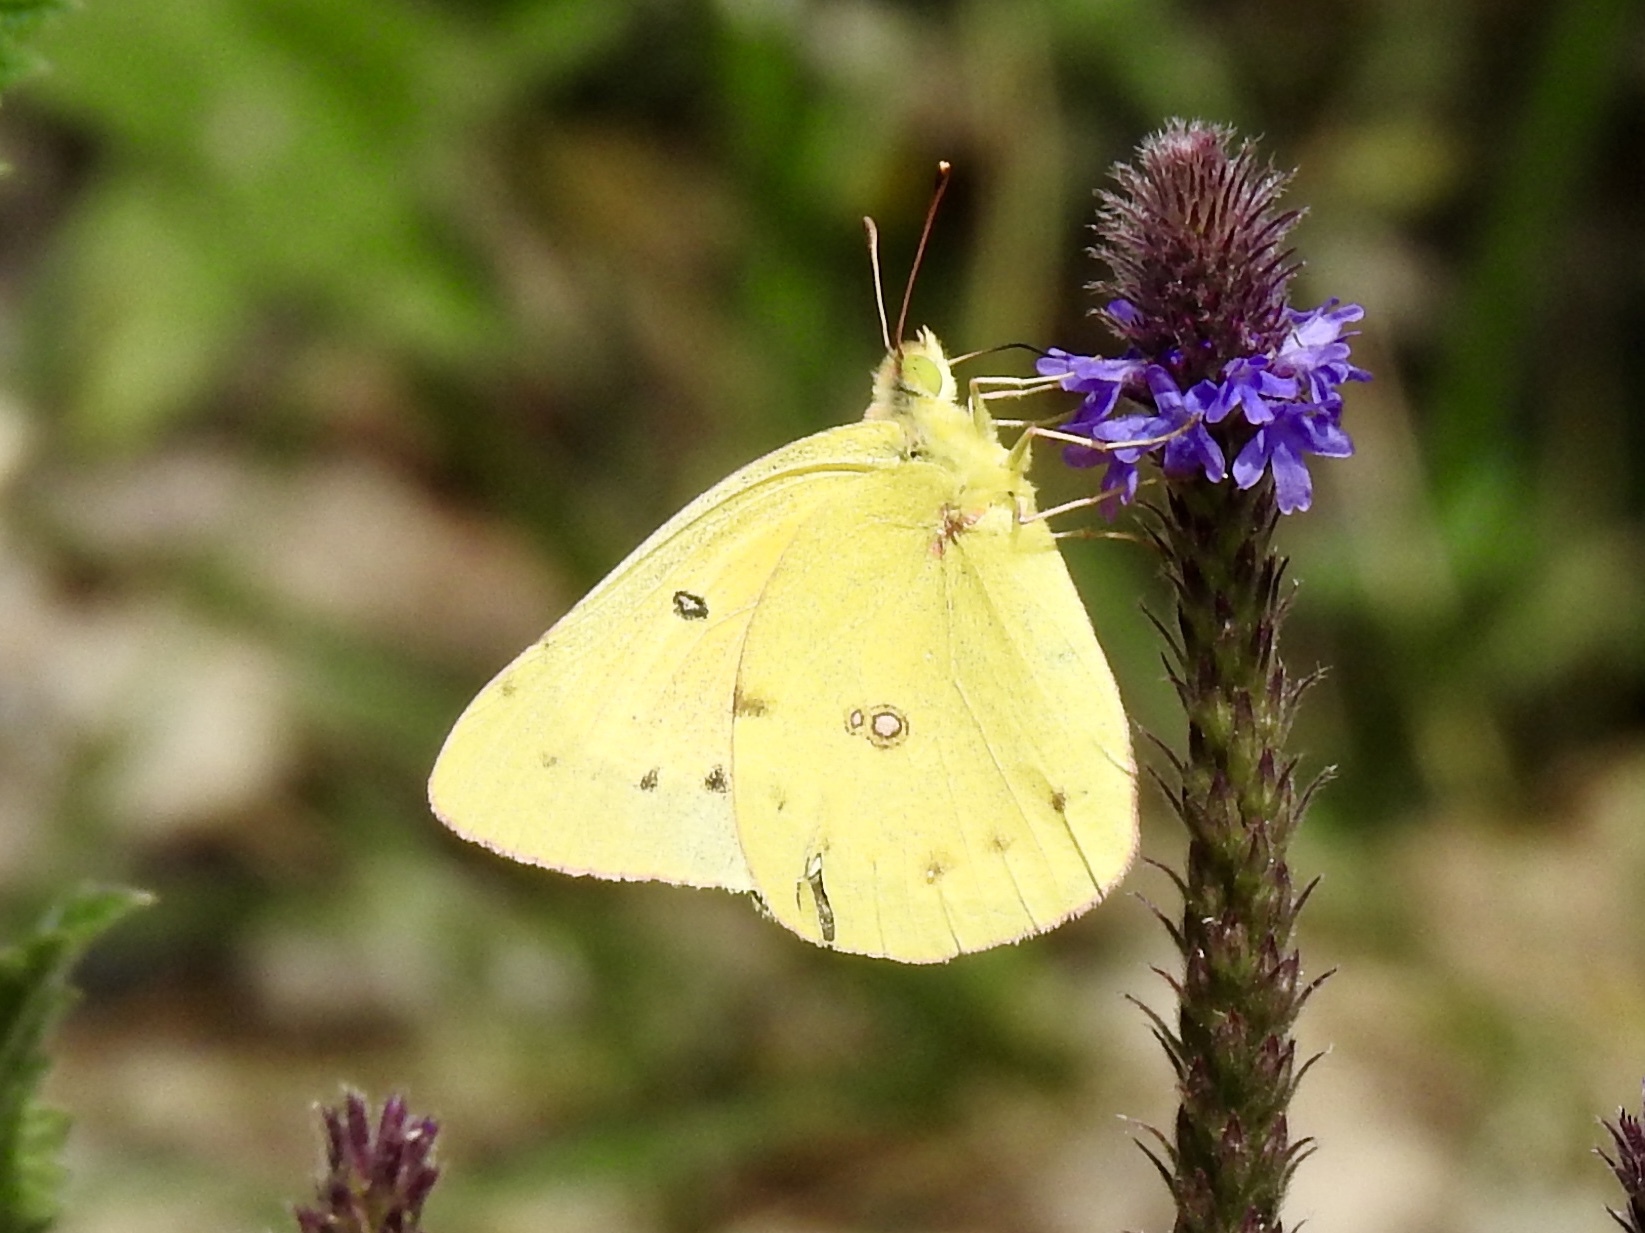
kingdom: Animalia
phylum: Arthropoda
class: Insecta
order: Lepidoptera
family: Pieridae
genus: Colias
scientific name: Colias eurytheme
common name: Alfalfa butterfly
